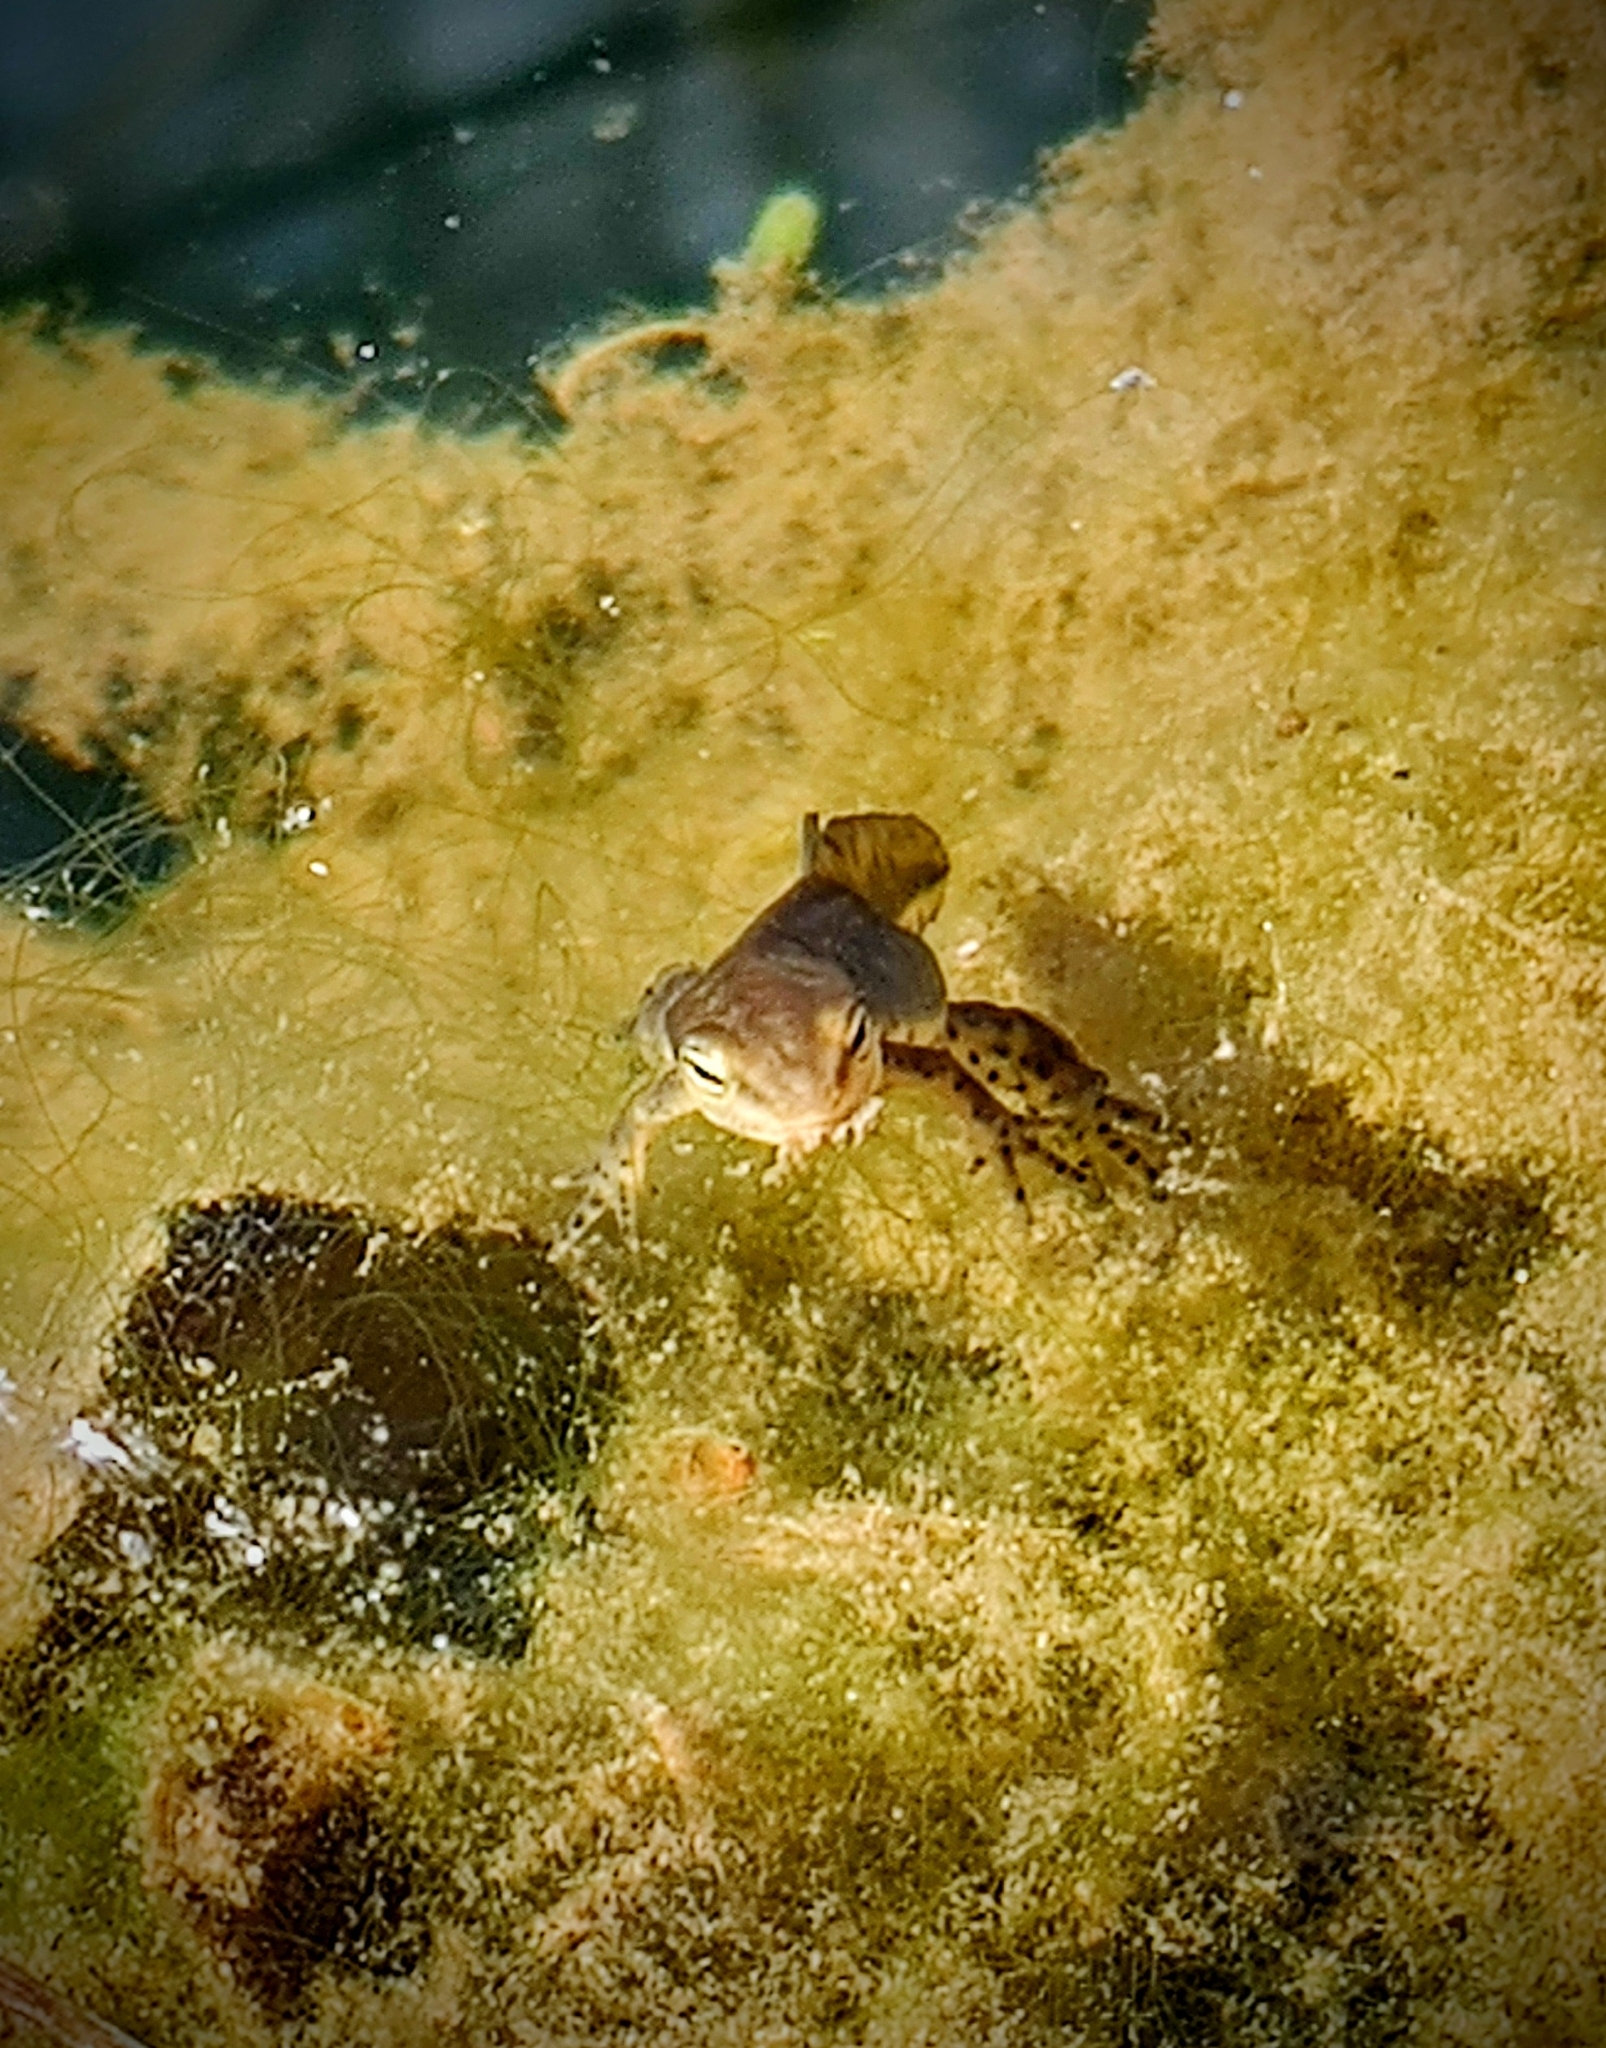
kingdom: Animalia
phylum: Chordata
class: Amphibia
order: Caudata
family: Salamandridae
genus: Notophthalmus
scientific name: Notophthalmus viridescens
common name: Eastern newt
